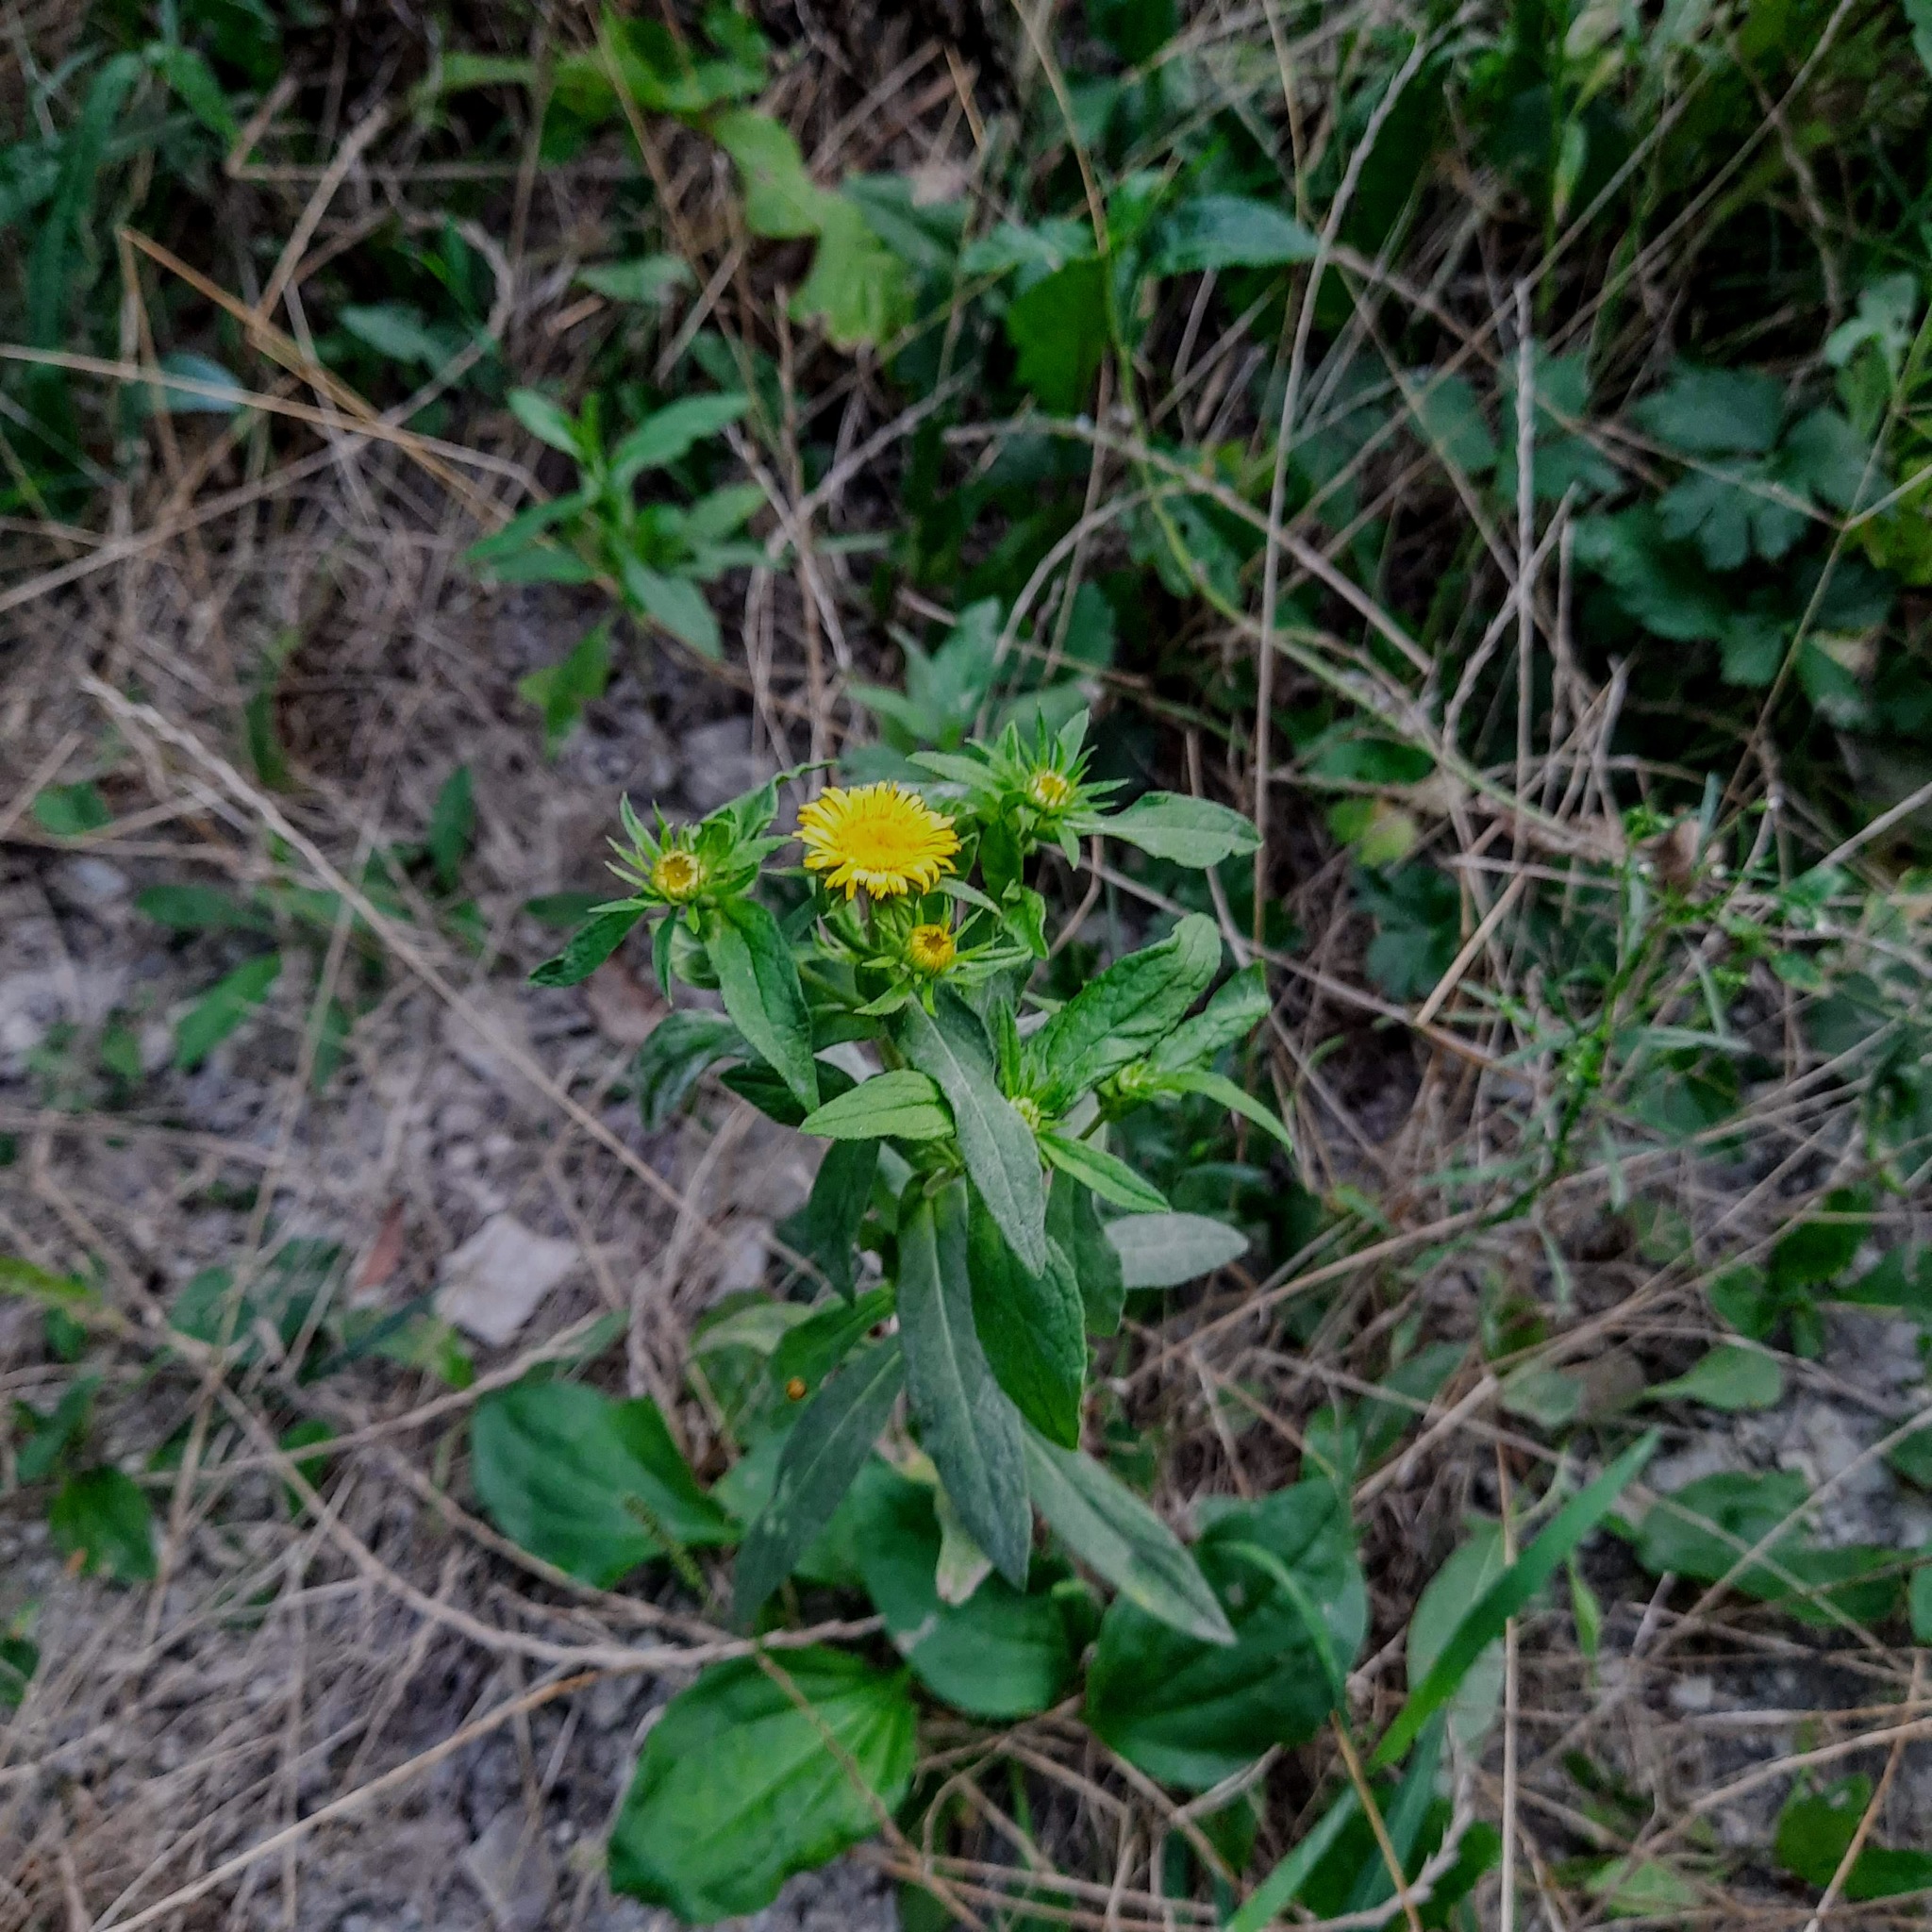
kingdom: Plantae
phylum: Tracheophyta
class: Magnoliopsida
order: Asterales
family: Asteraceae
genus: Pentanema
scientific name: Pentanema britannicum
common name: British elecampane
